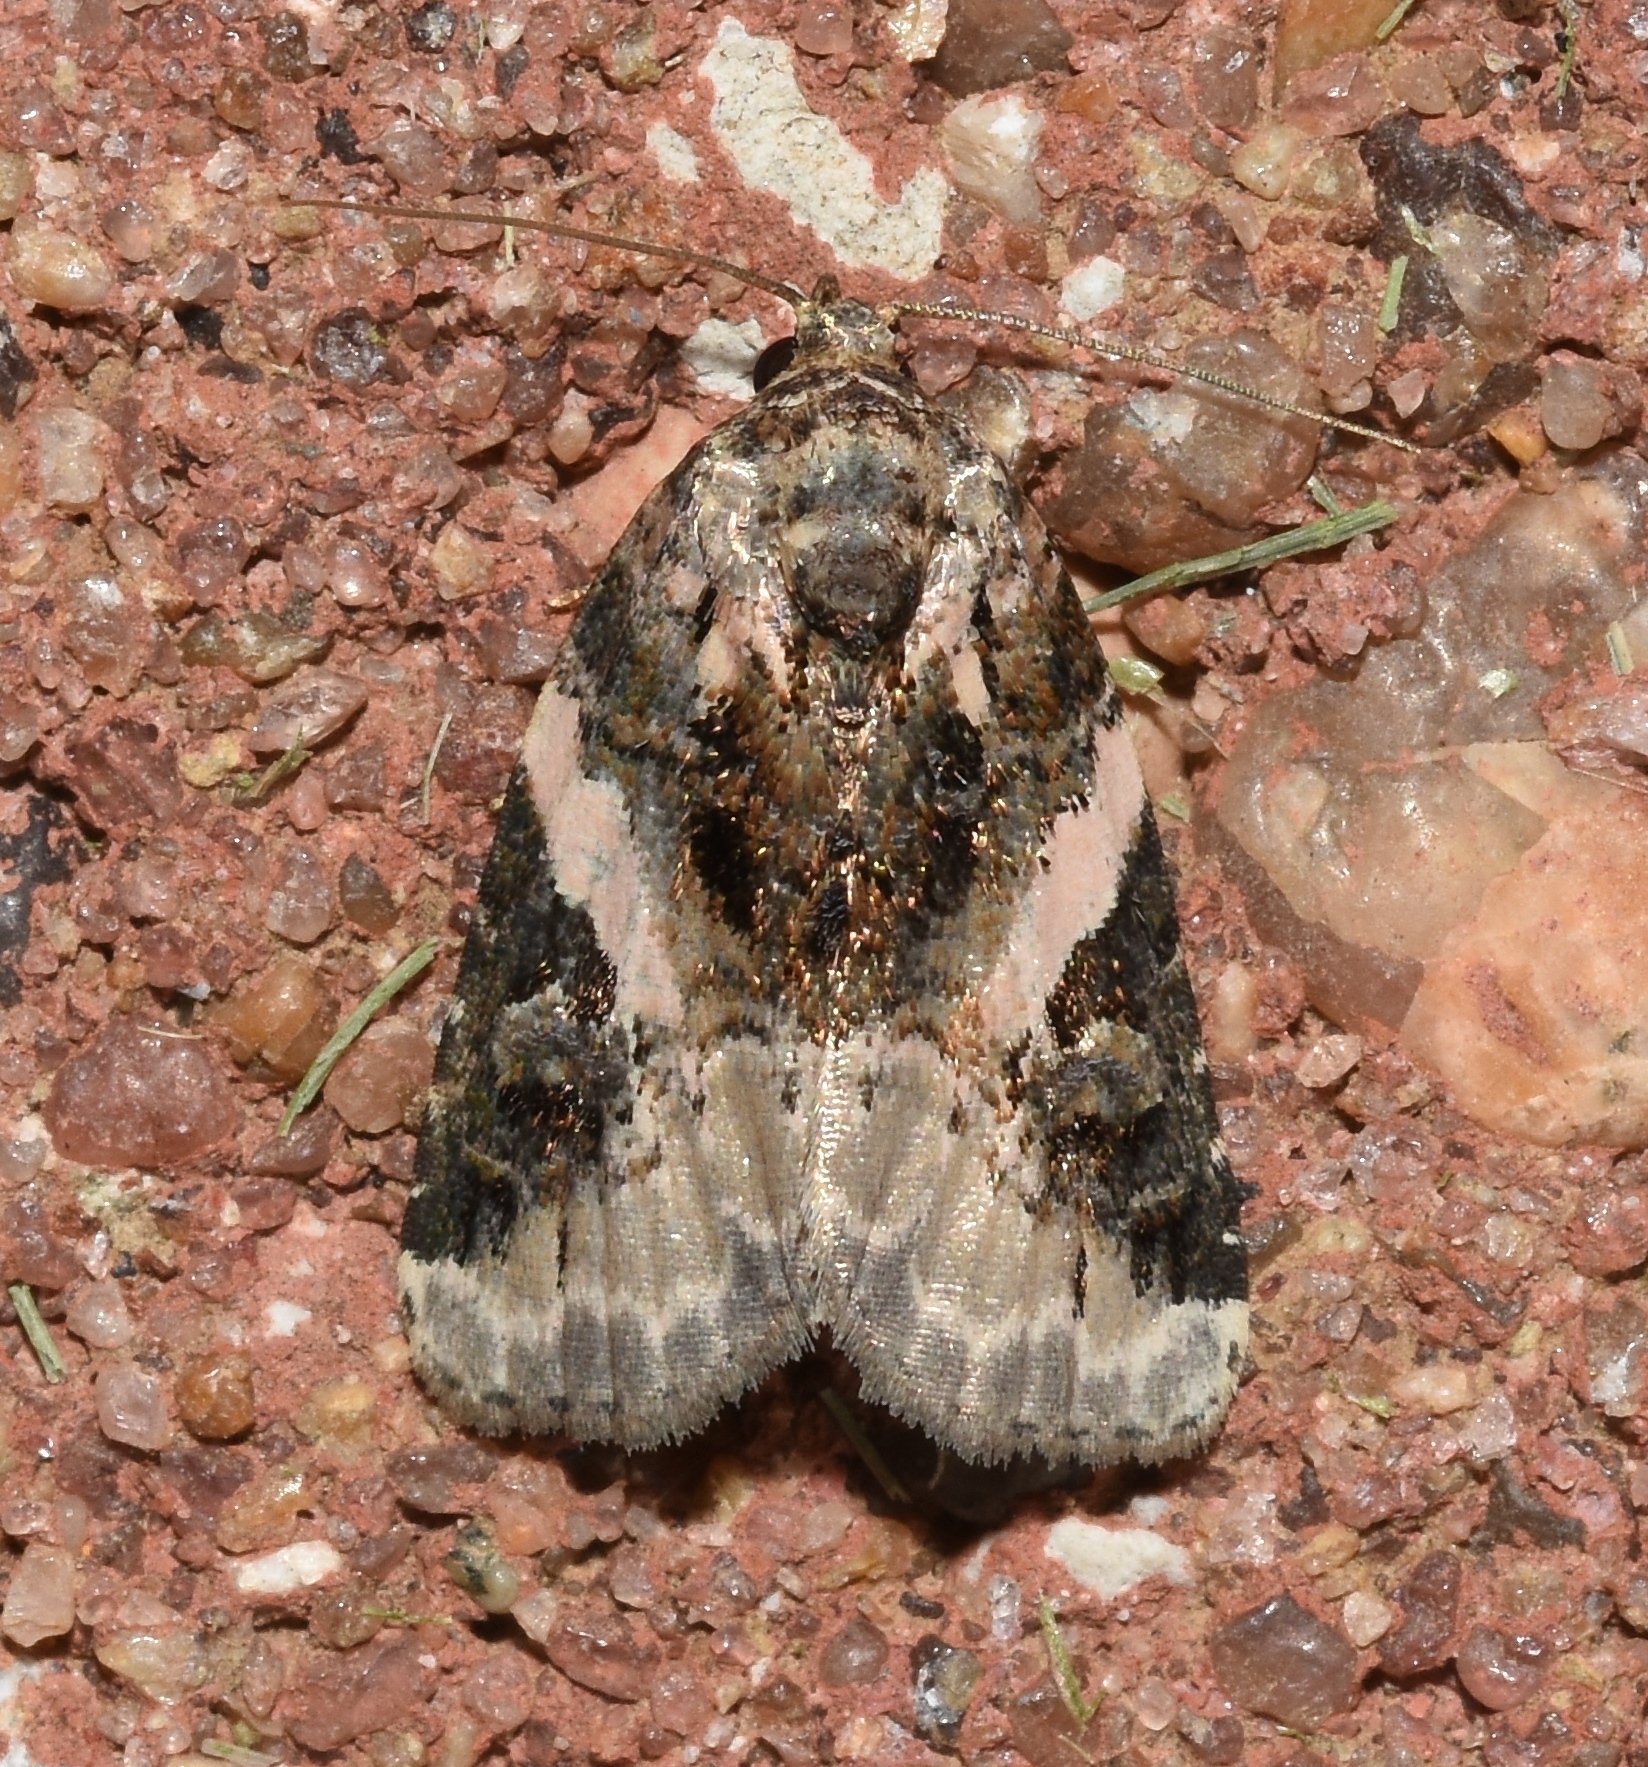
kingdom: Animalia
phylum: Arthropoda
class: Insecta
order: Lepidoptera
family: Noctuidae
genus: Pseudeustrotia
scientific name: Pseudeustrotia carneola
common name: Pink-barred lithacodia moth
